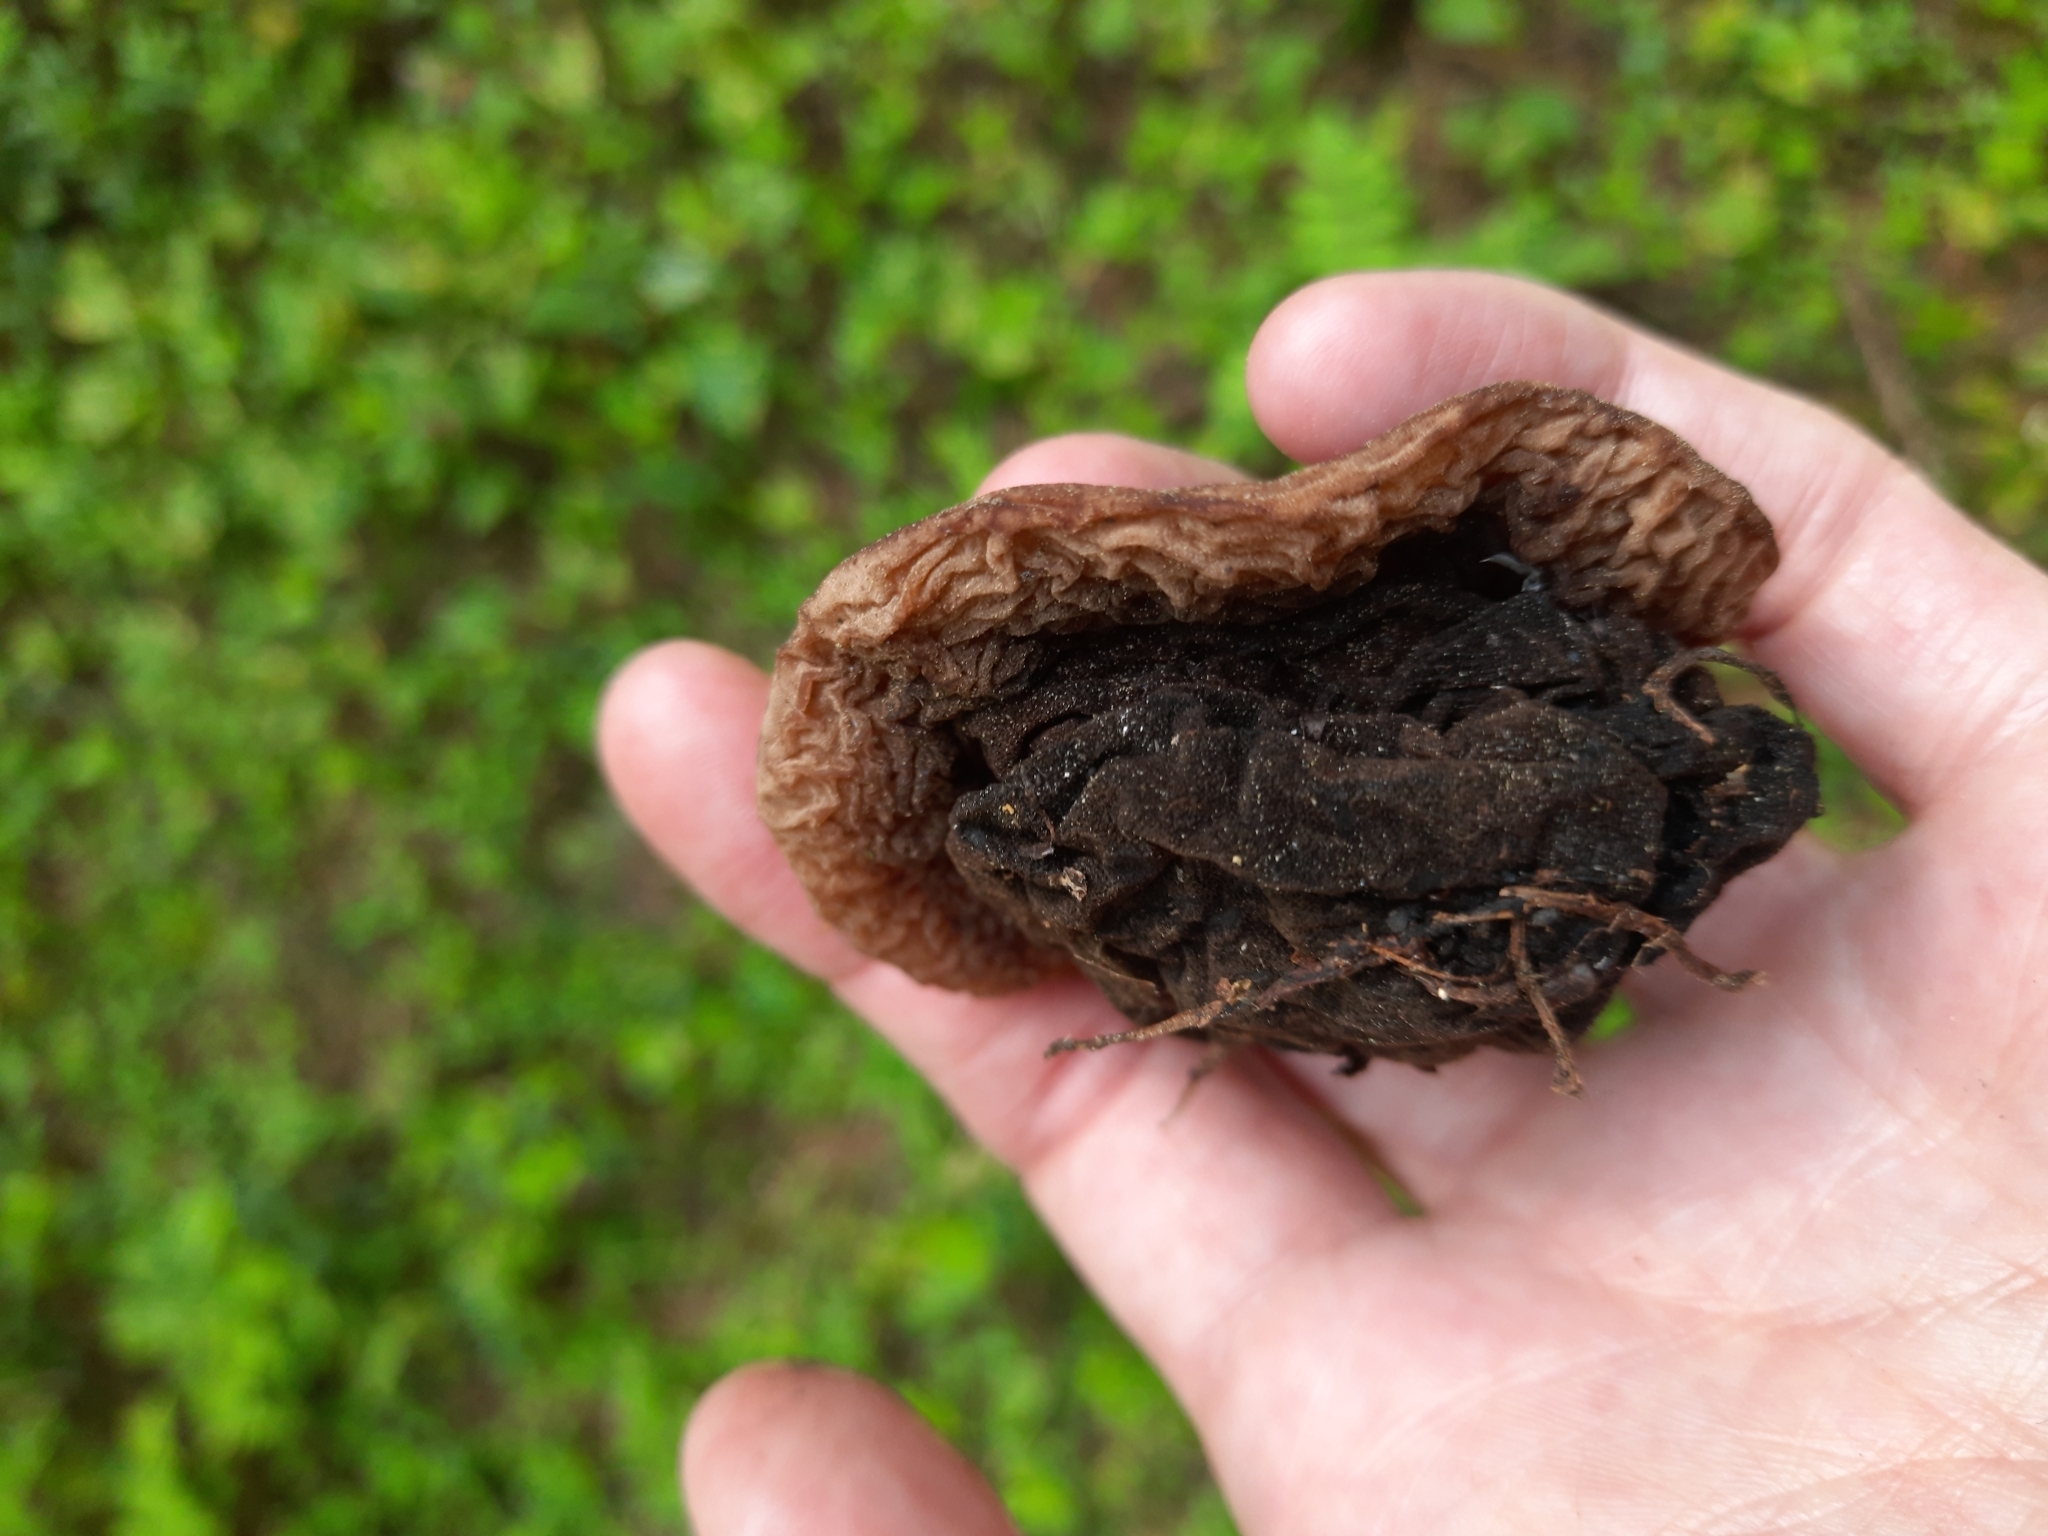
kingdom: Fungi
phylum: Ascomycota
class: Pezizomycetes
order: Pezizales
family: Sarcosomataceae
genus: Sarcosoma
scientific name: Sarcosoma globosum
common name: Charred-pancake cup
